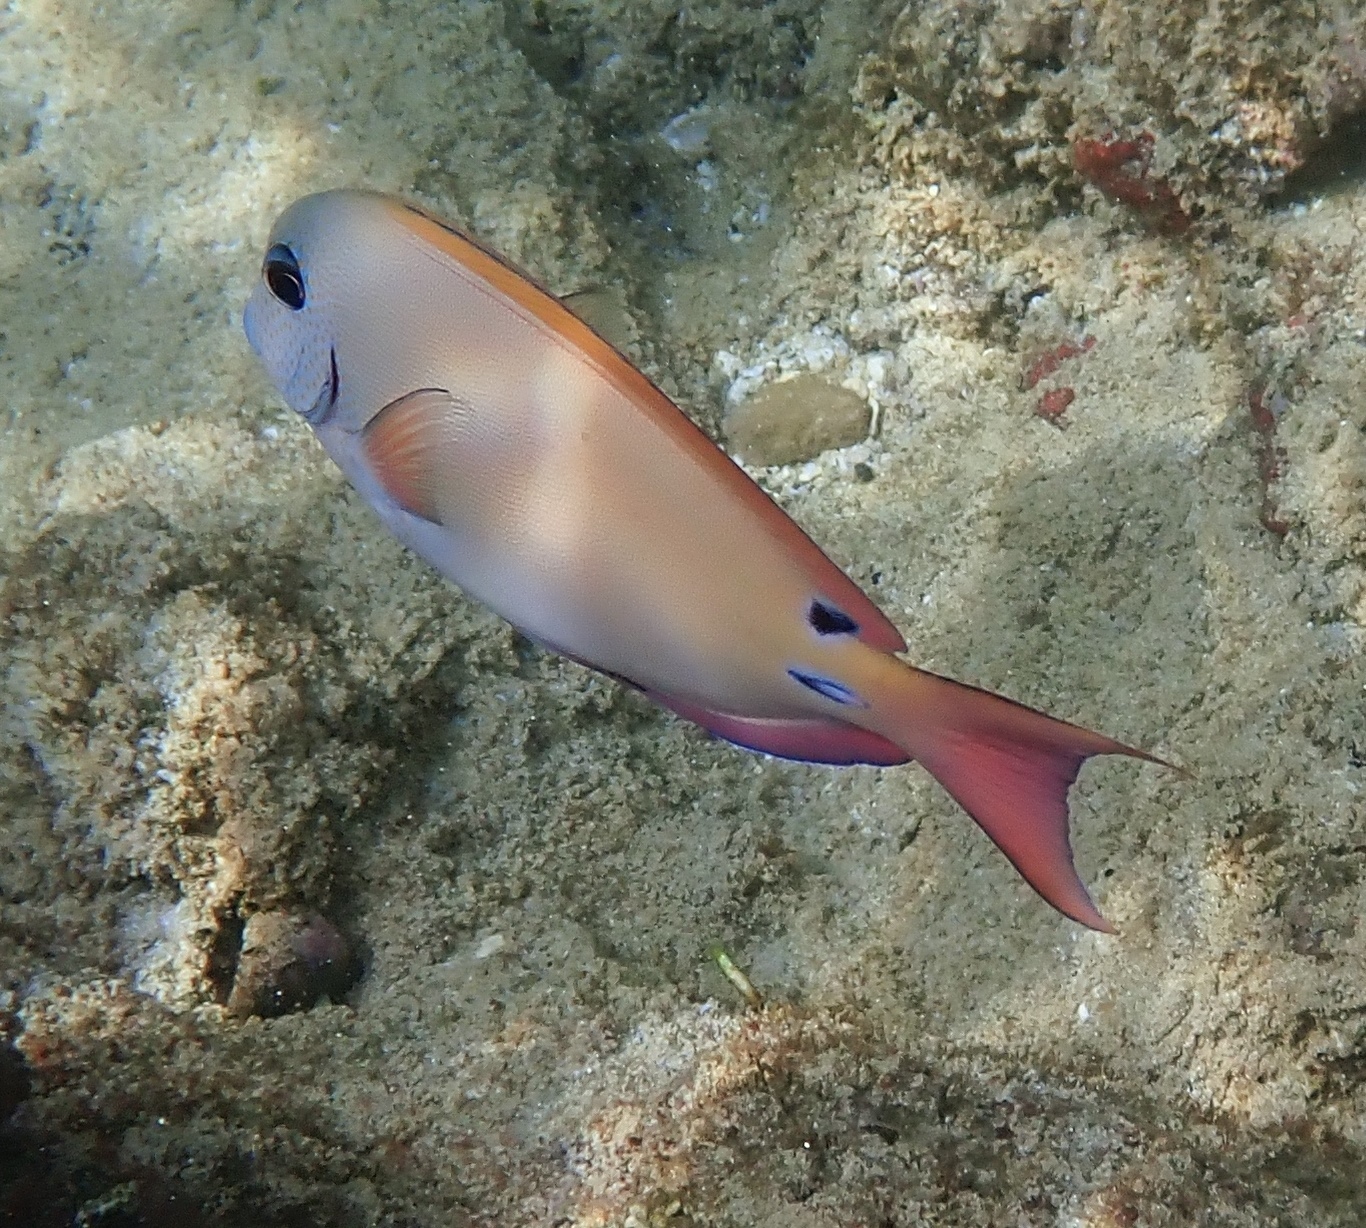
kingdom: Animalia
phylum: Chordata
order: Perciformes
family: Acanthuridae
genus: Acanthurus
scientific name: Acanthurus nigrofuscus
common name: Blackspot surgeonfish
